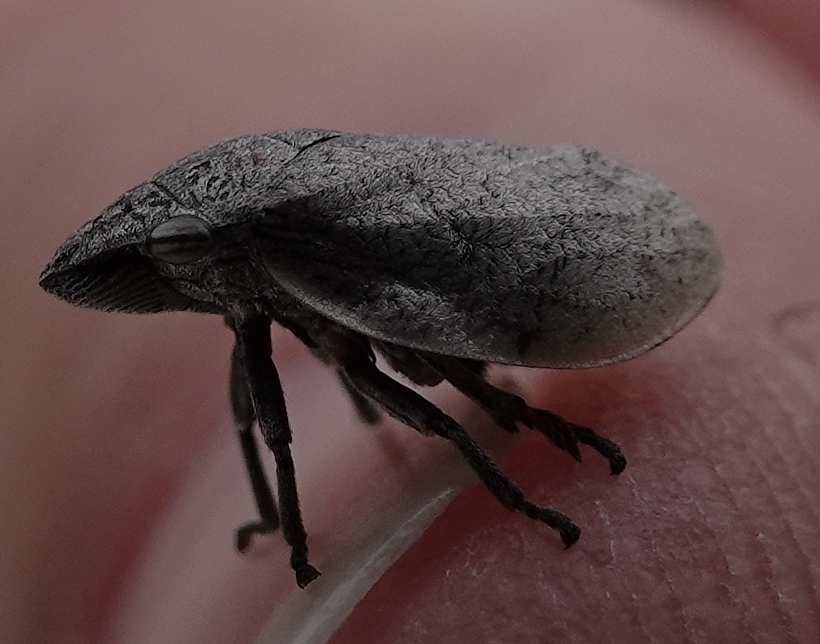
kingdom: Animalia
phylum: Arthropoda
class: Insecta
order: Hemiptera
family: Aphrophoridae
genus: Lepyronia
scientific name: Lepyronia gibbosa
